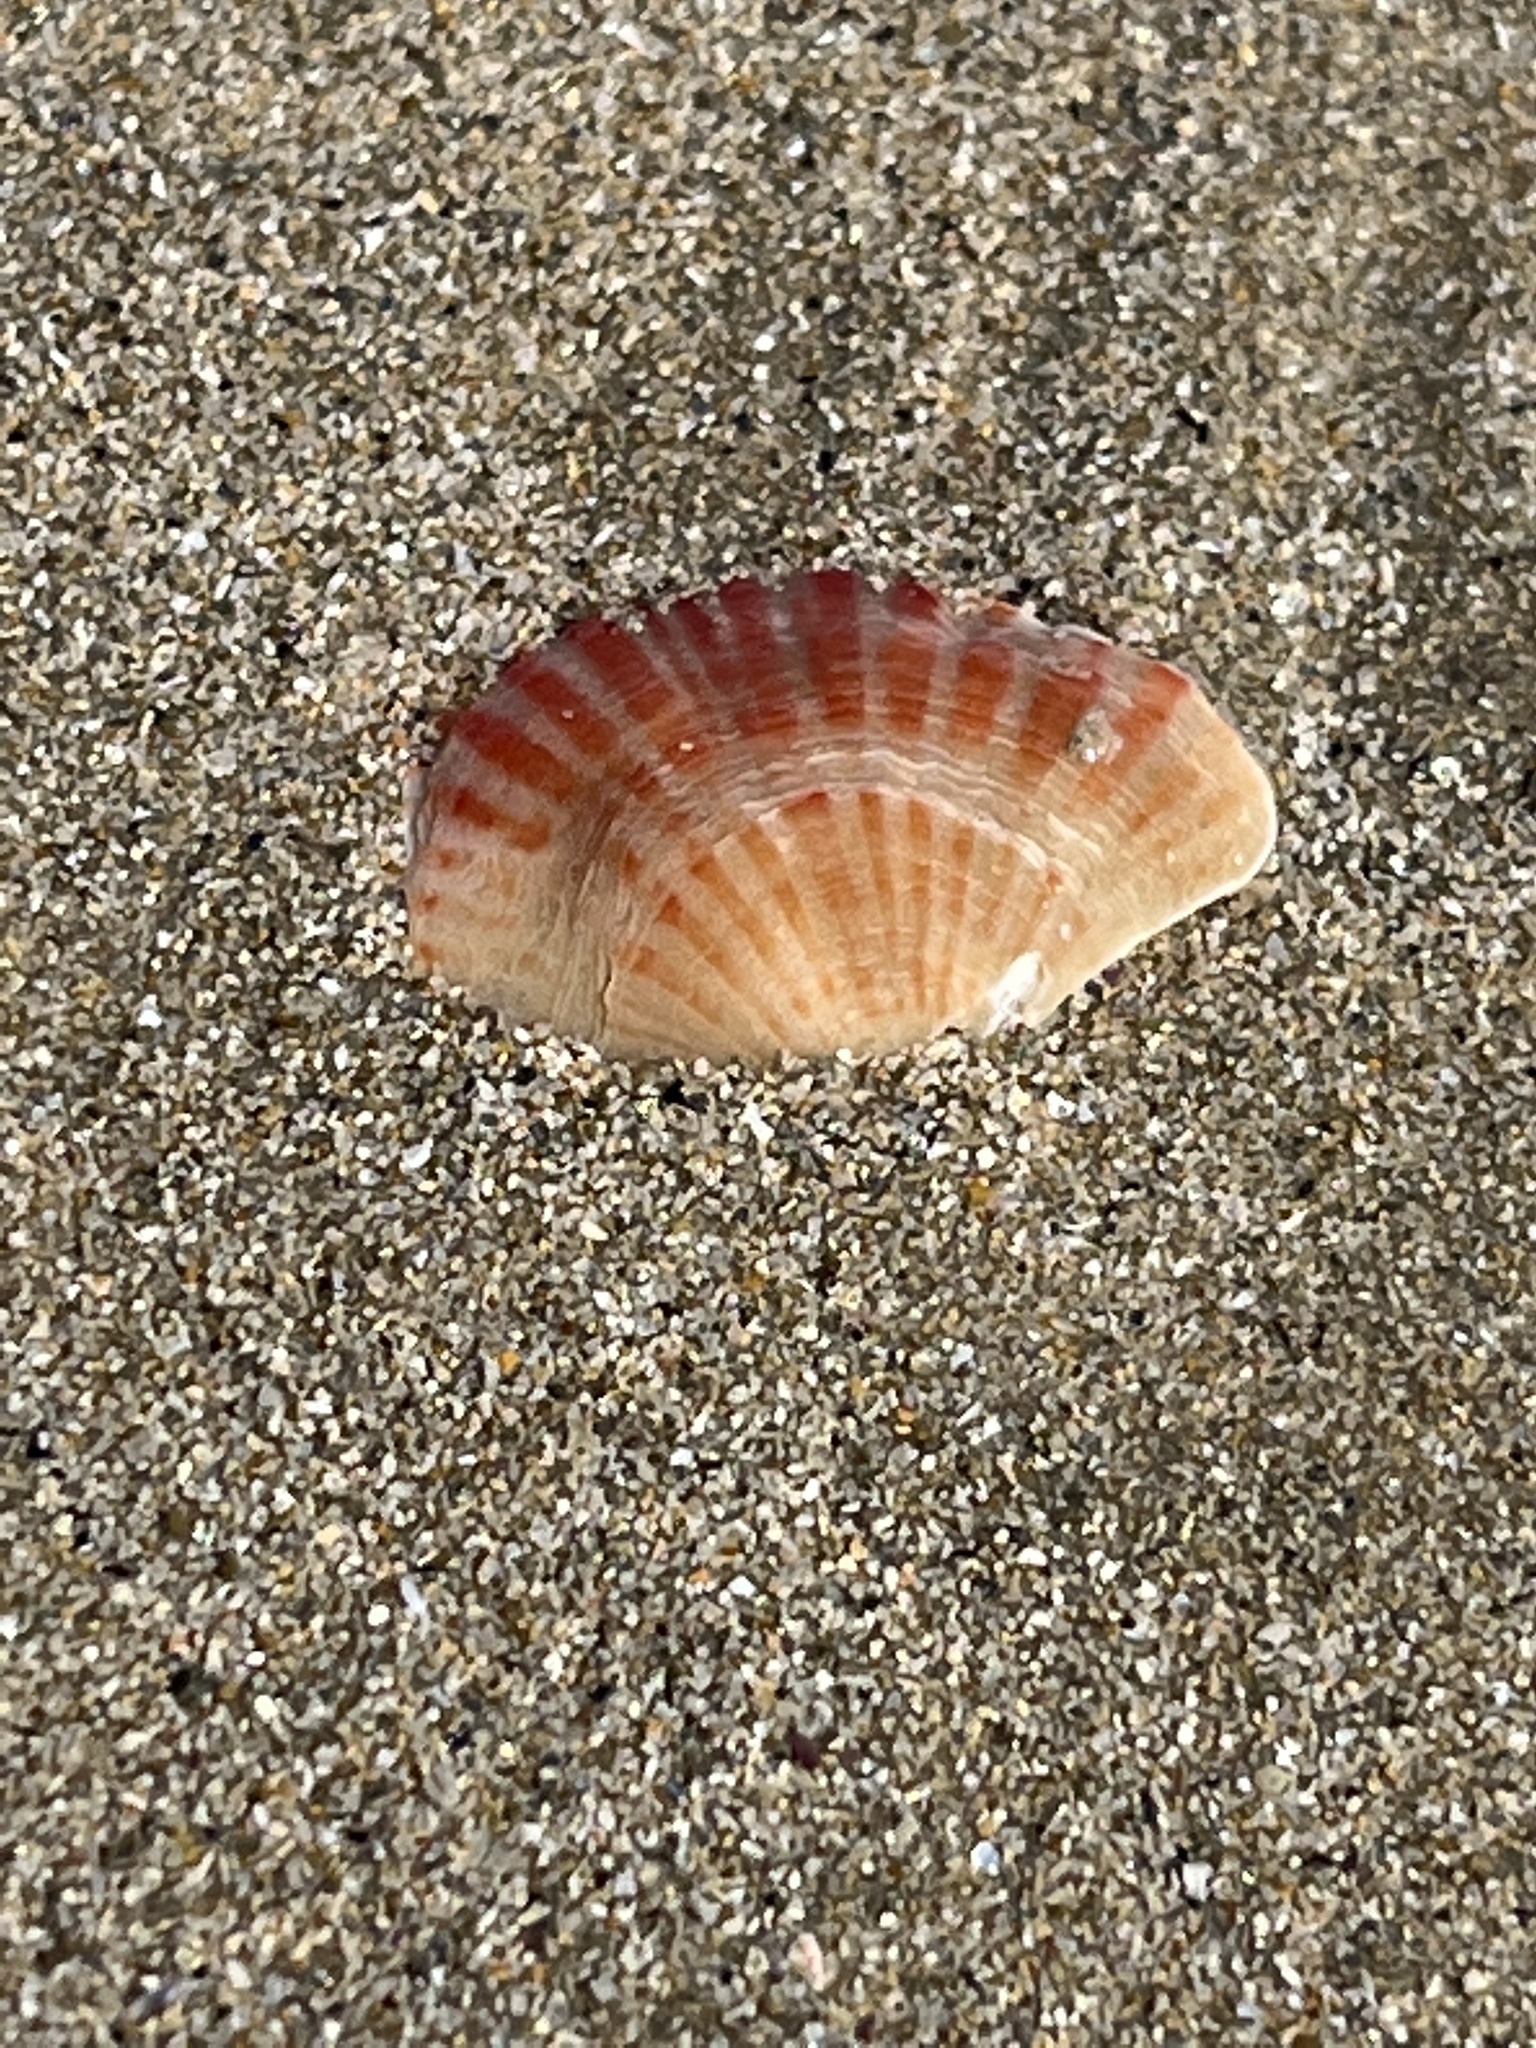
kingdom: Animalia
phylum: Brachiopoda
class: Rhynchonellata
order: Terebratulida
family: Terebrataliidae
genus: Coptothyris
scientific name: Coptothyris grayi
